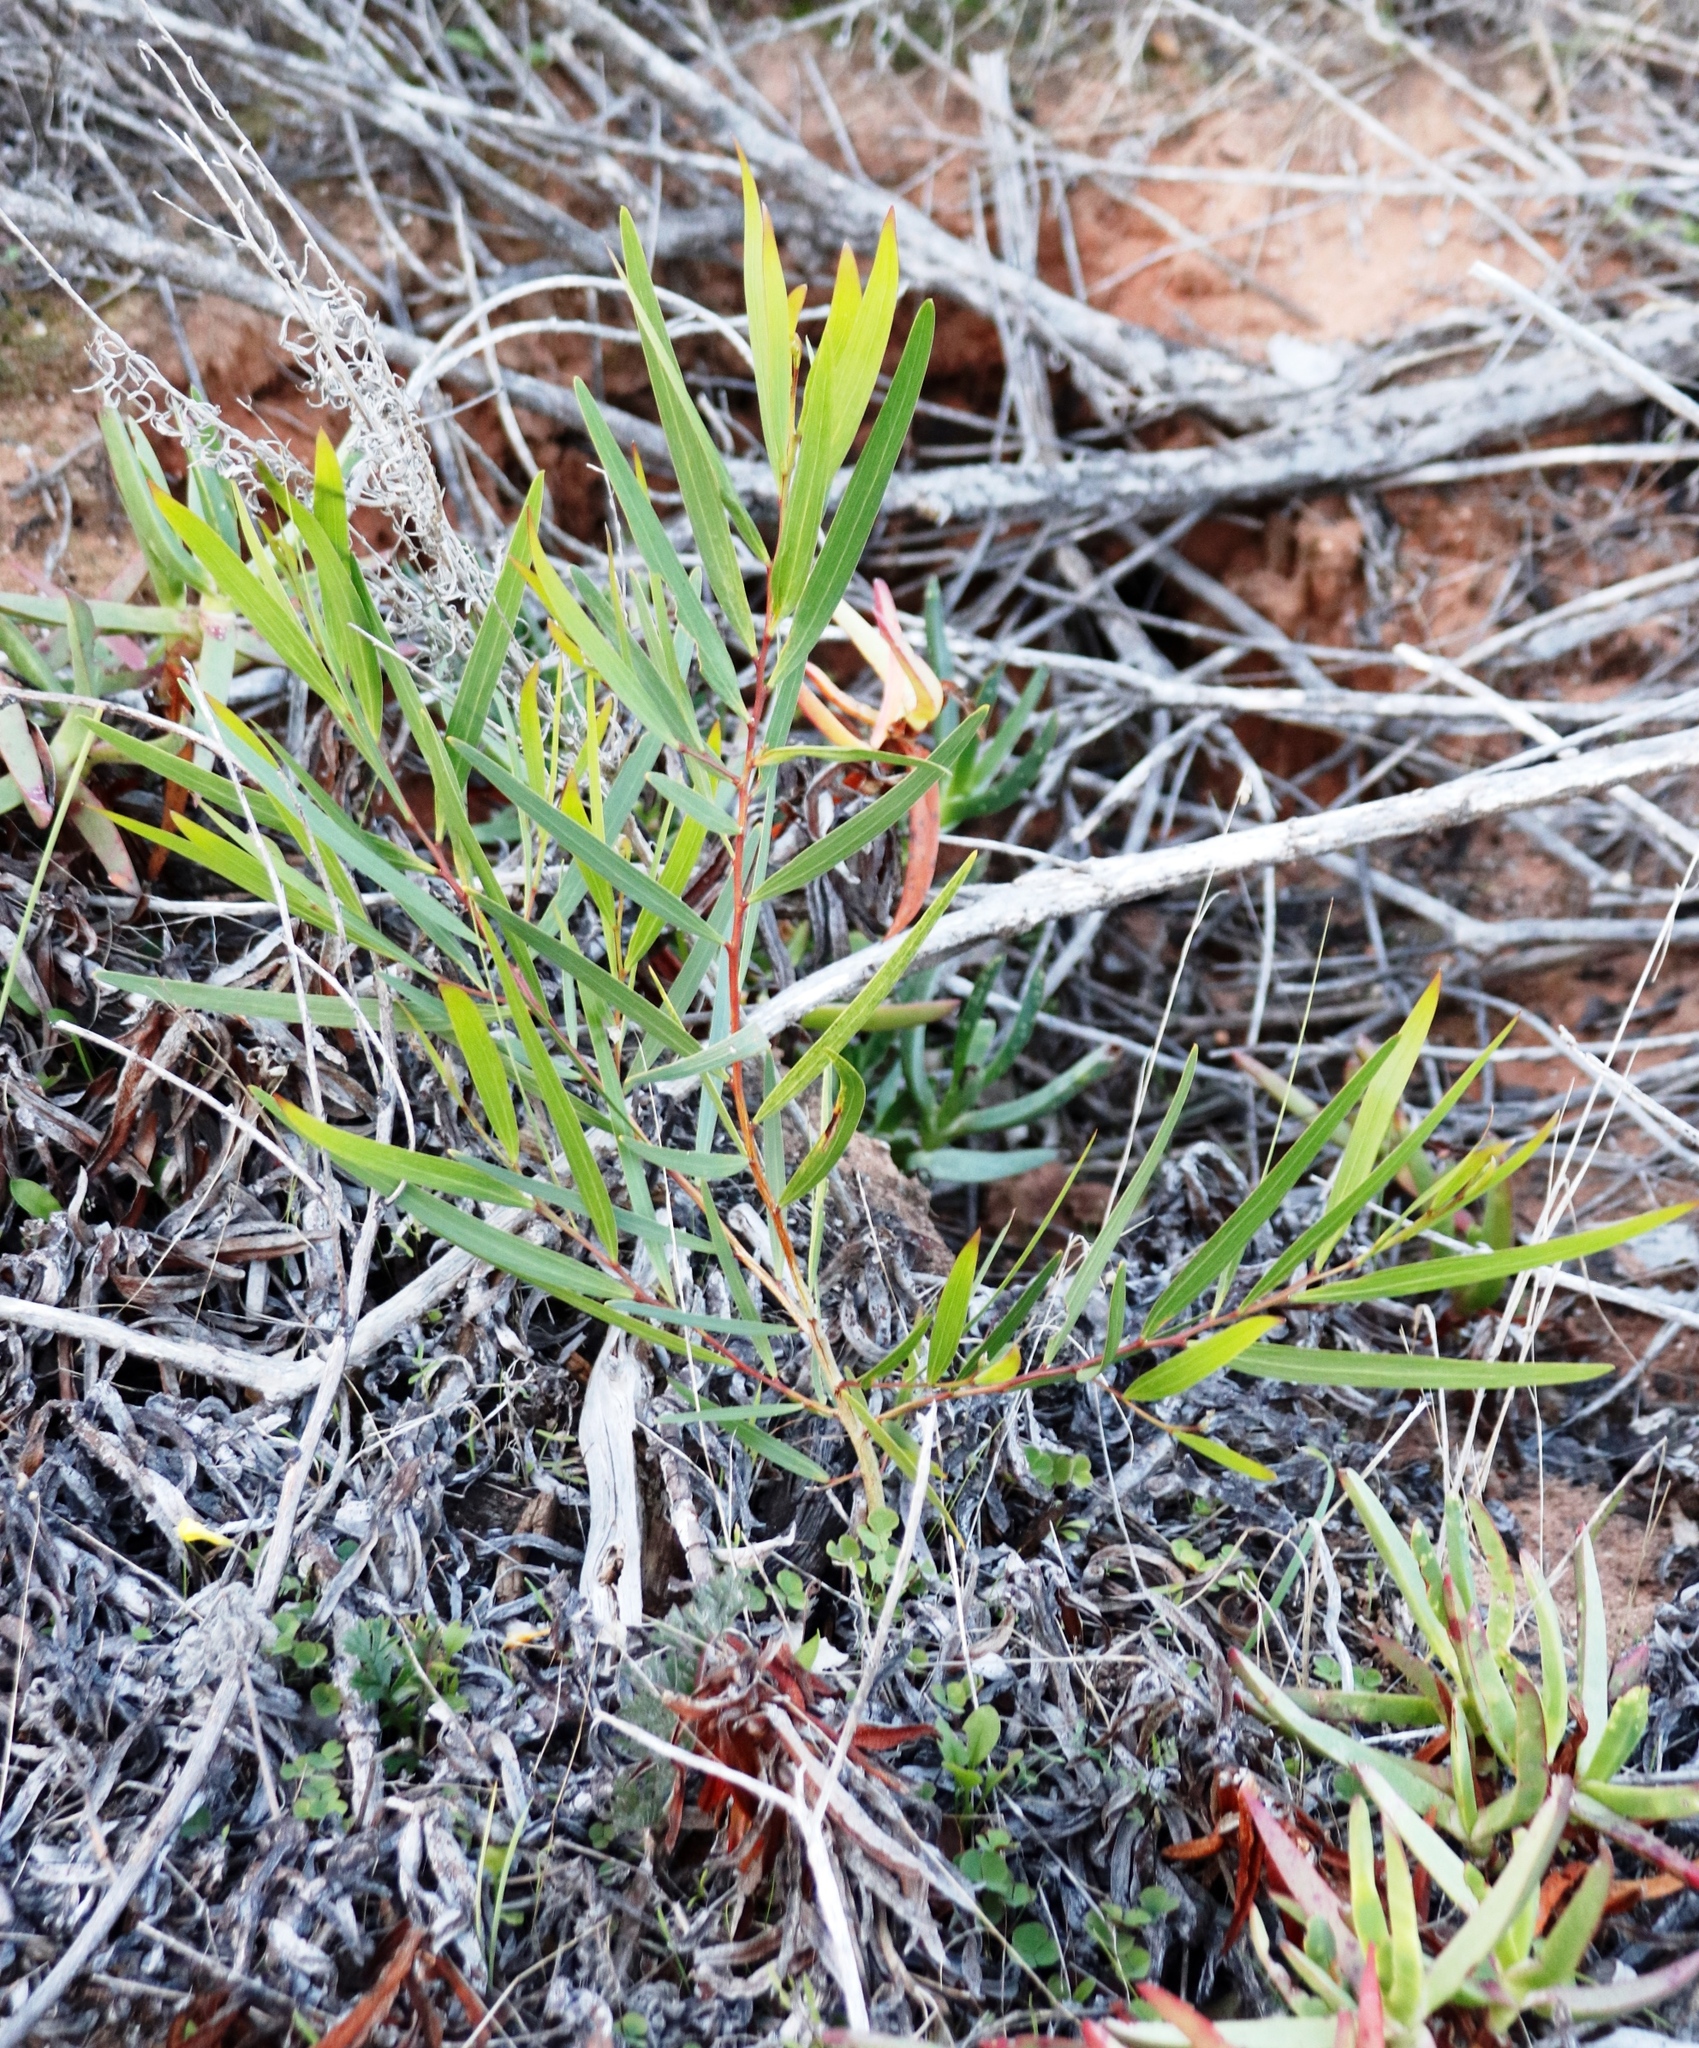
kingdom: Plantae
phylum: Tracheophyta
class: Magnoliopsida
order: Fabales
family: Fabaceae
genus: Acacia
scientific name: Acacia longifolia
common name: Sydney golden wattle
